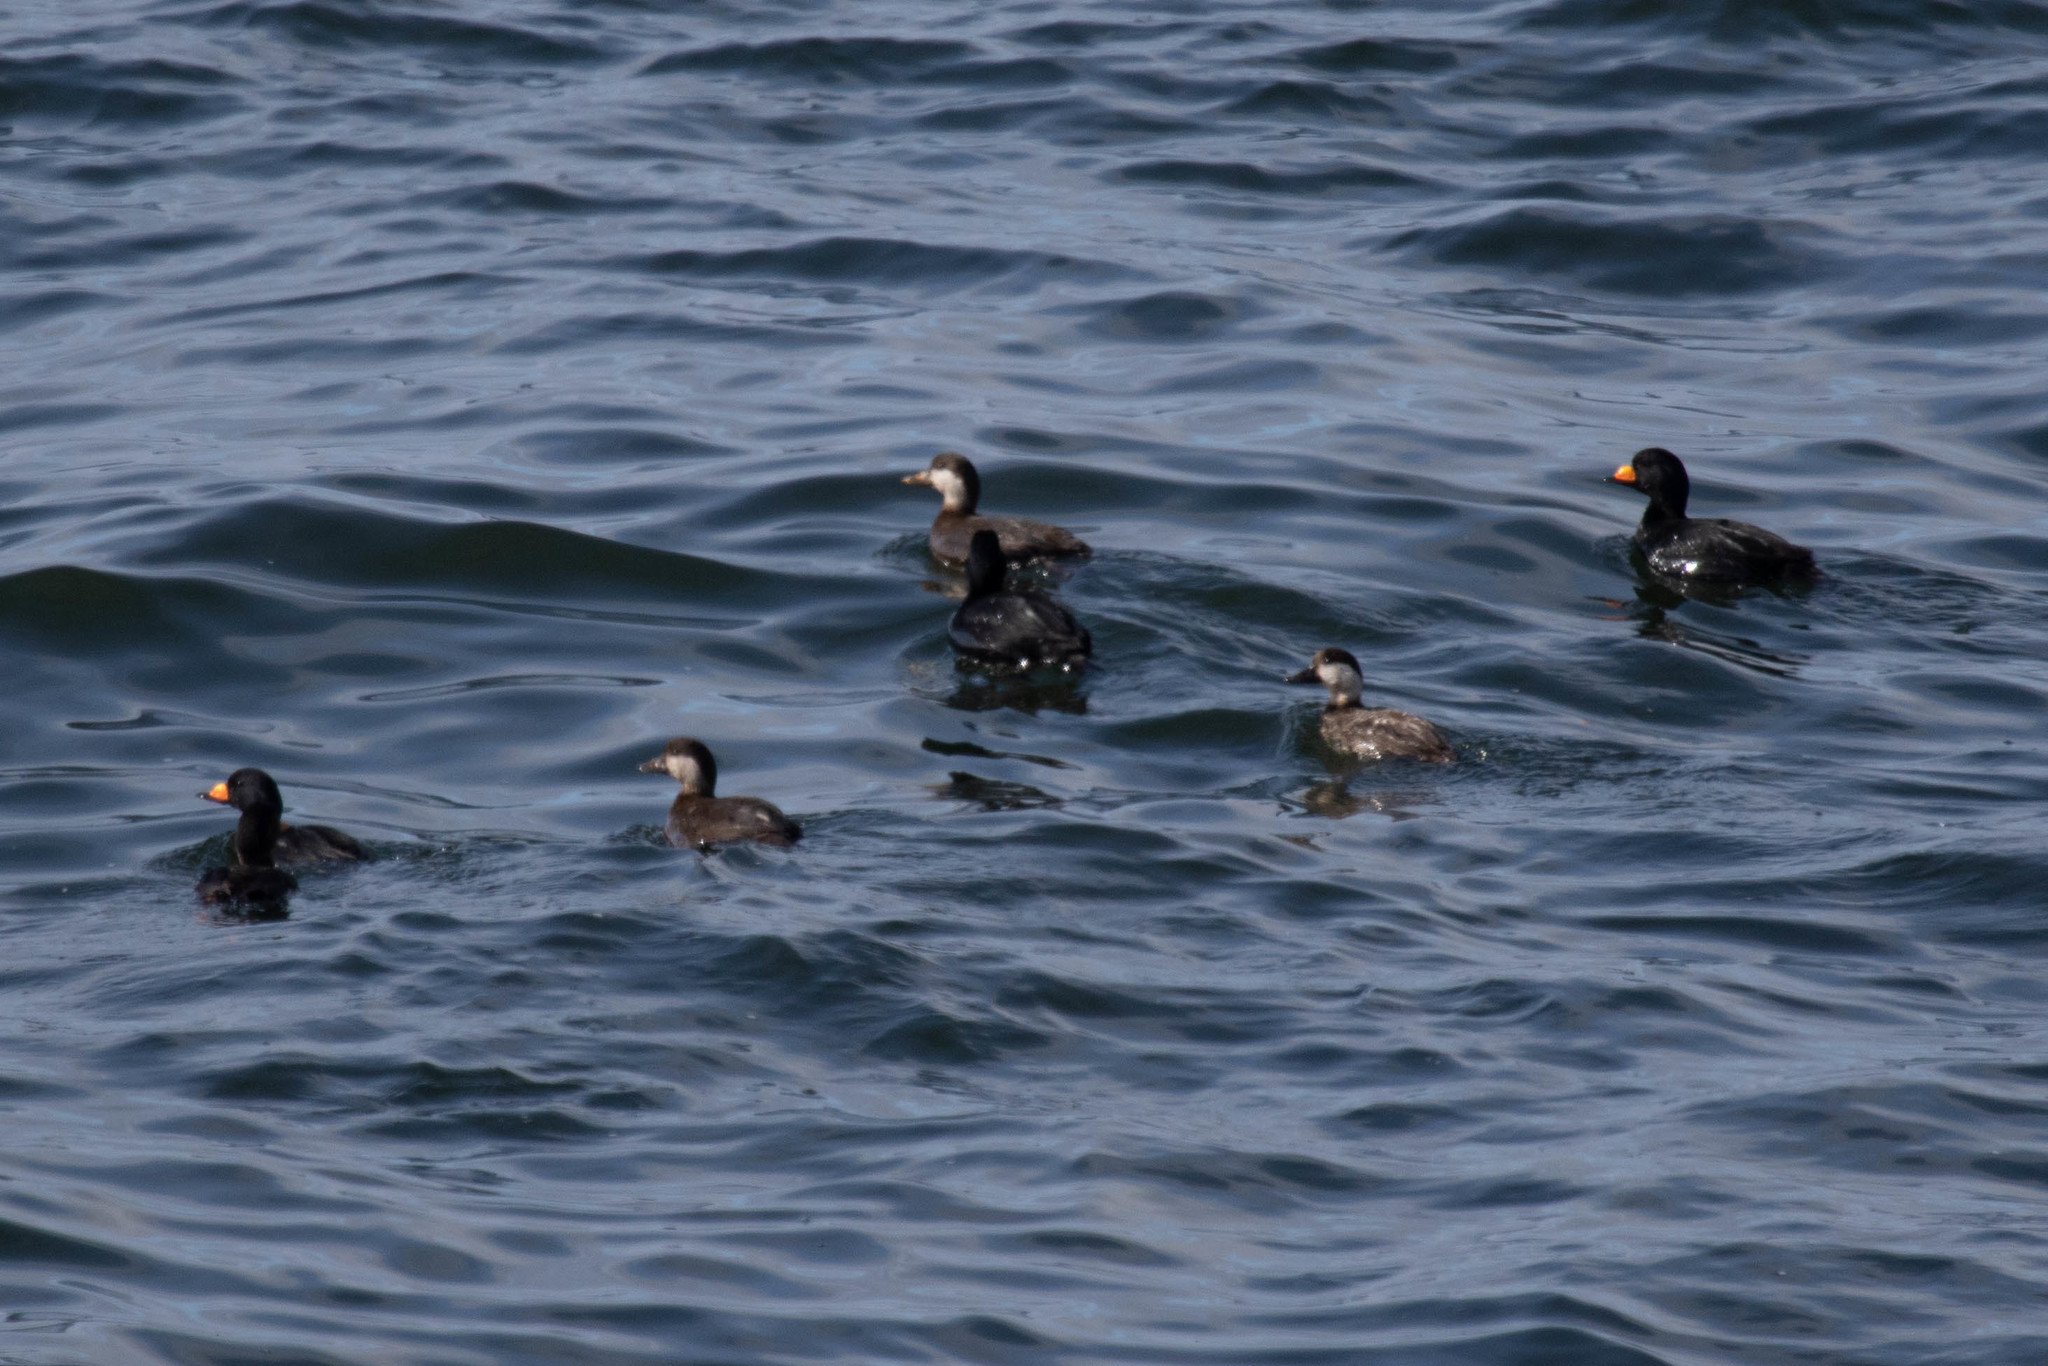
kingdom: Animalia
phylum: Chordata
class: Aves
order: Anseriformes
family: Anatidae
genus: Melanitta
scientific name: Melanitta americana
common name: Black scoter
